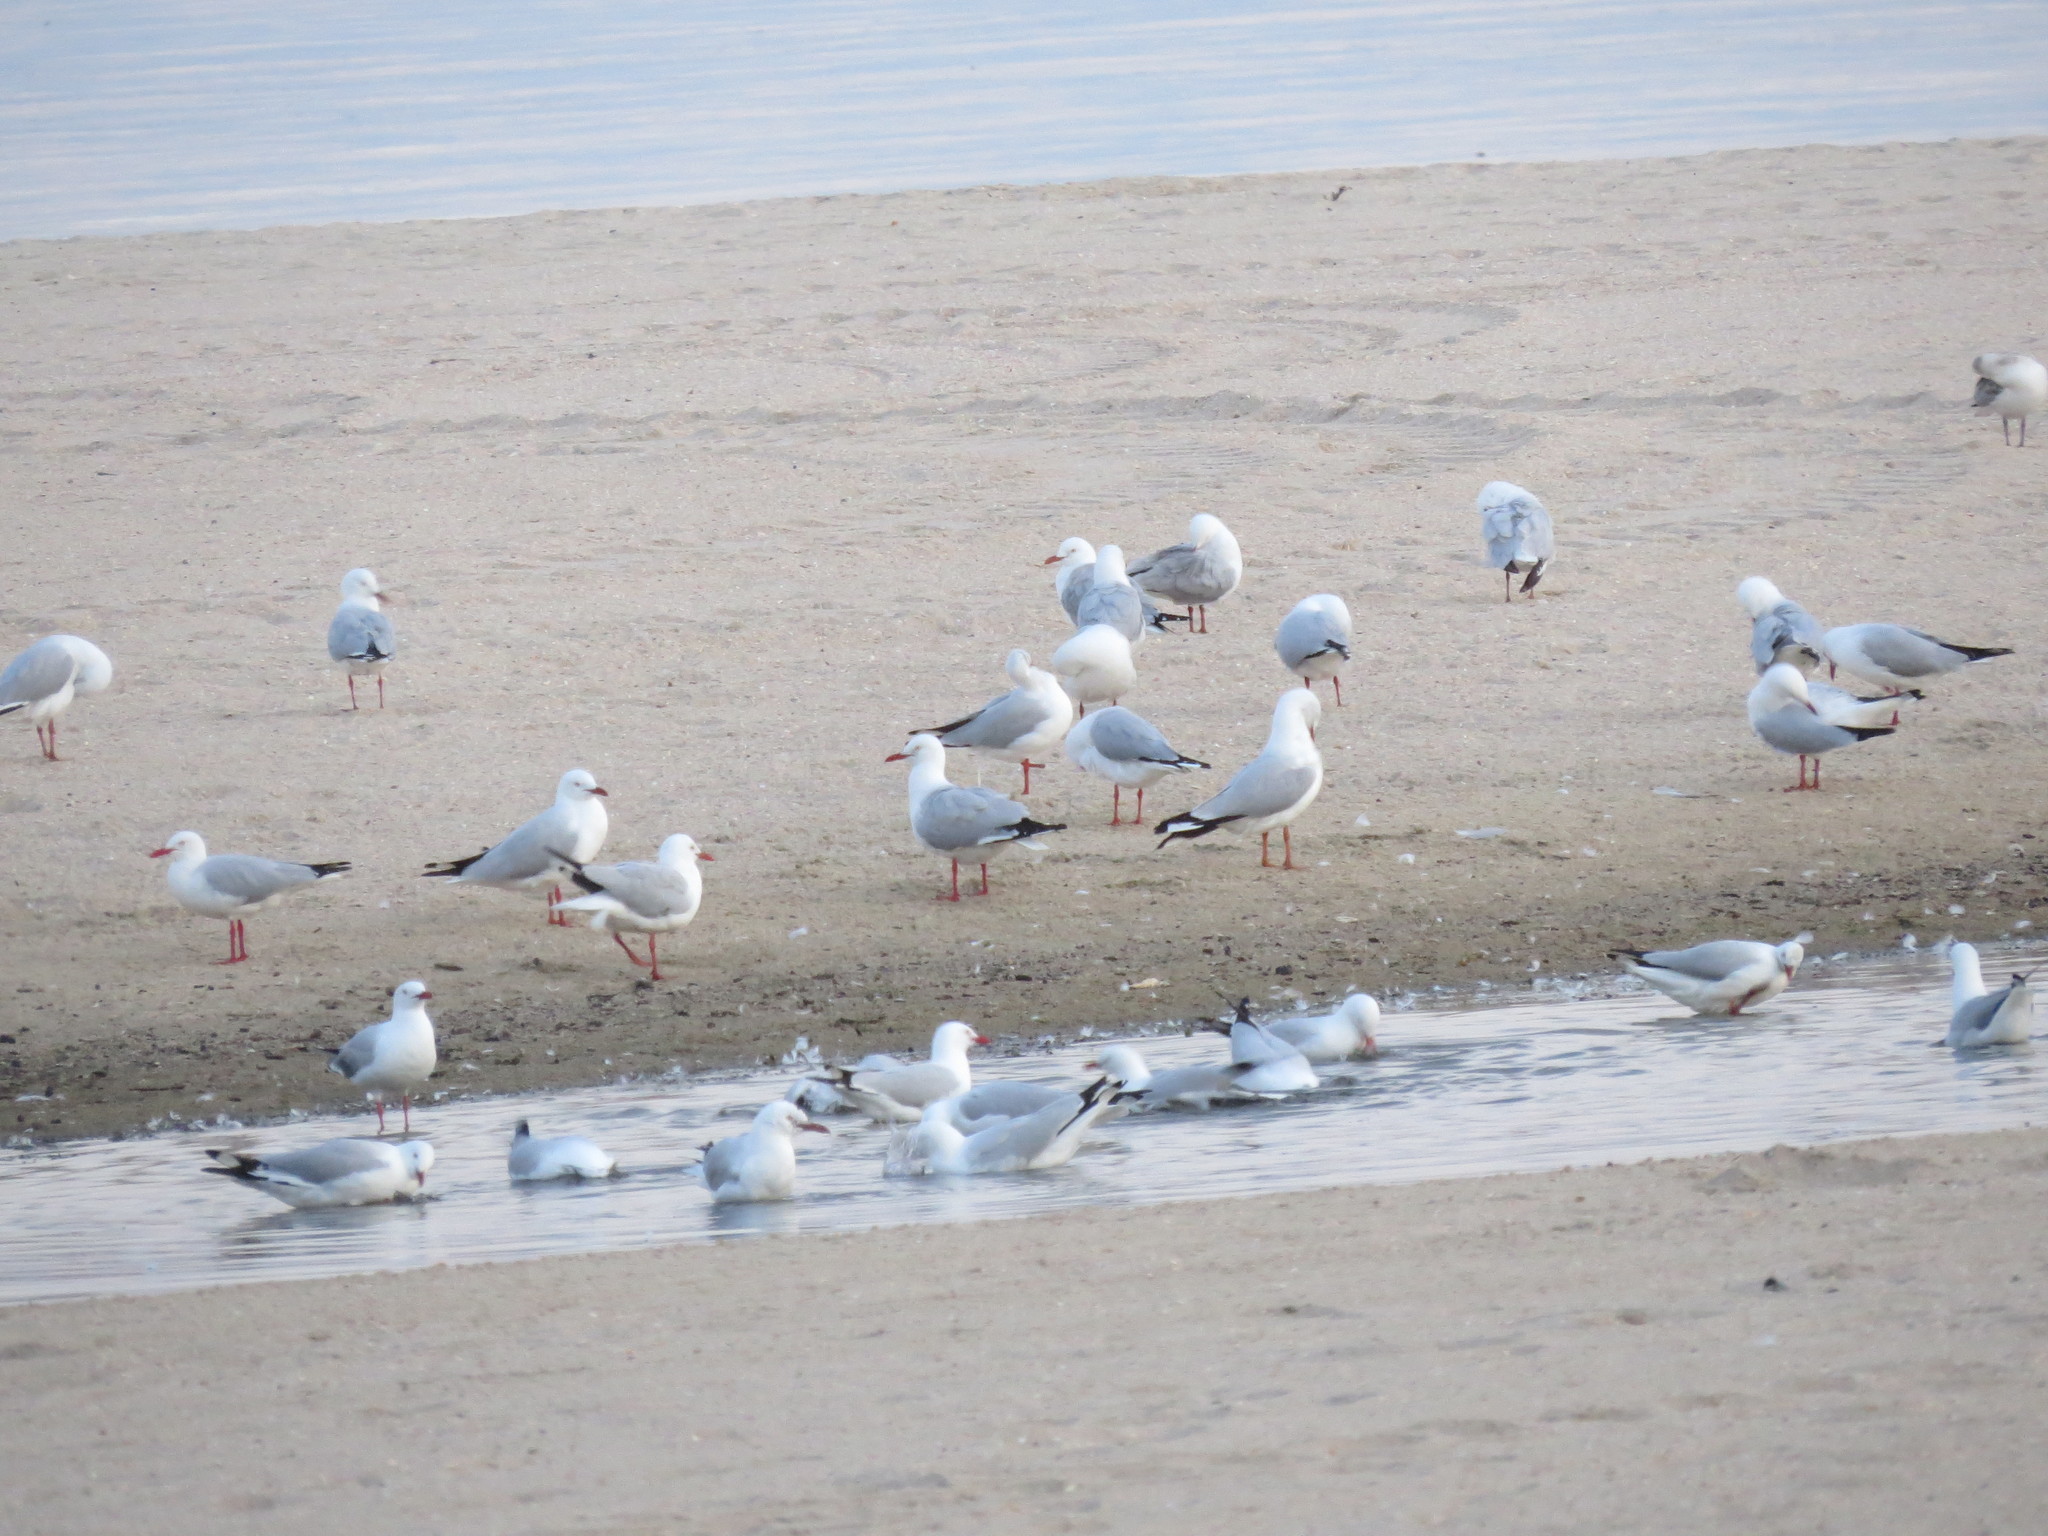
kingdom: Animalia
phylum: Chordata
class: Aves
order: Charadriiformes
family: Laridae
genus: Chroicocephalus
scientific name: Chroicocephalus novaehollandiae
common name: Silver gull
